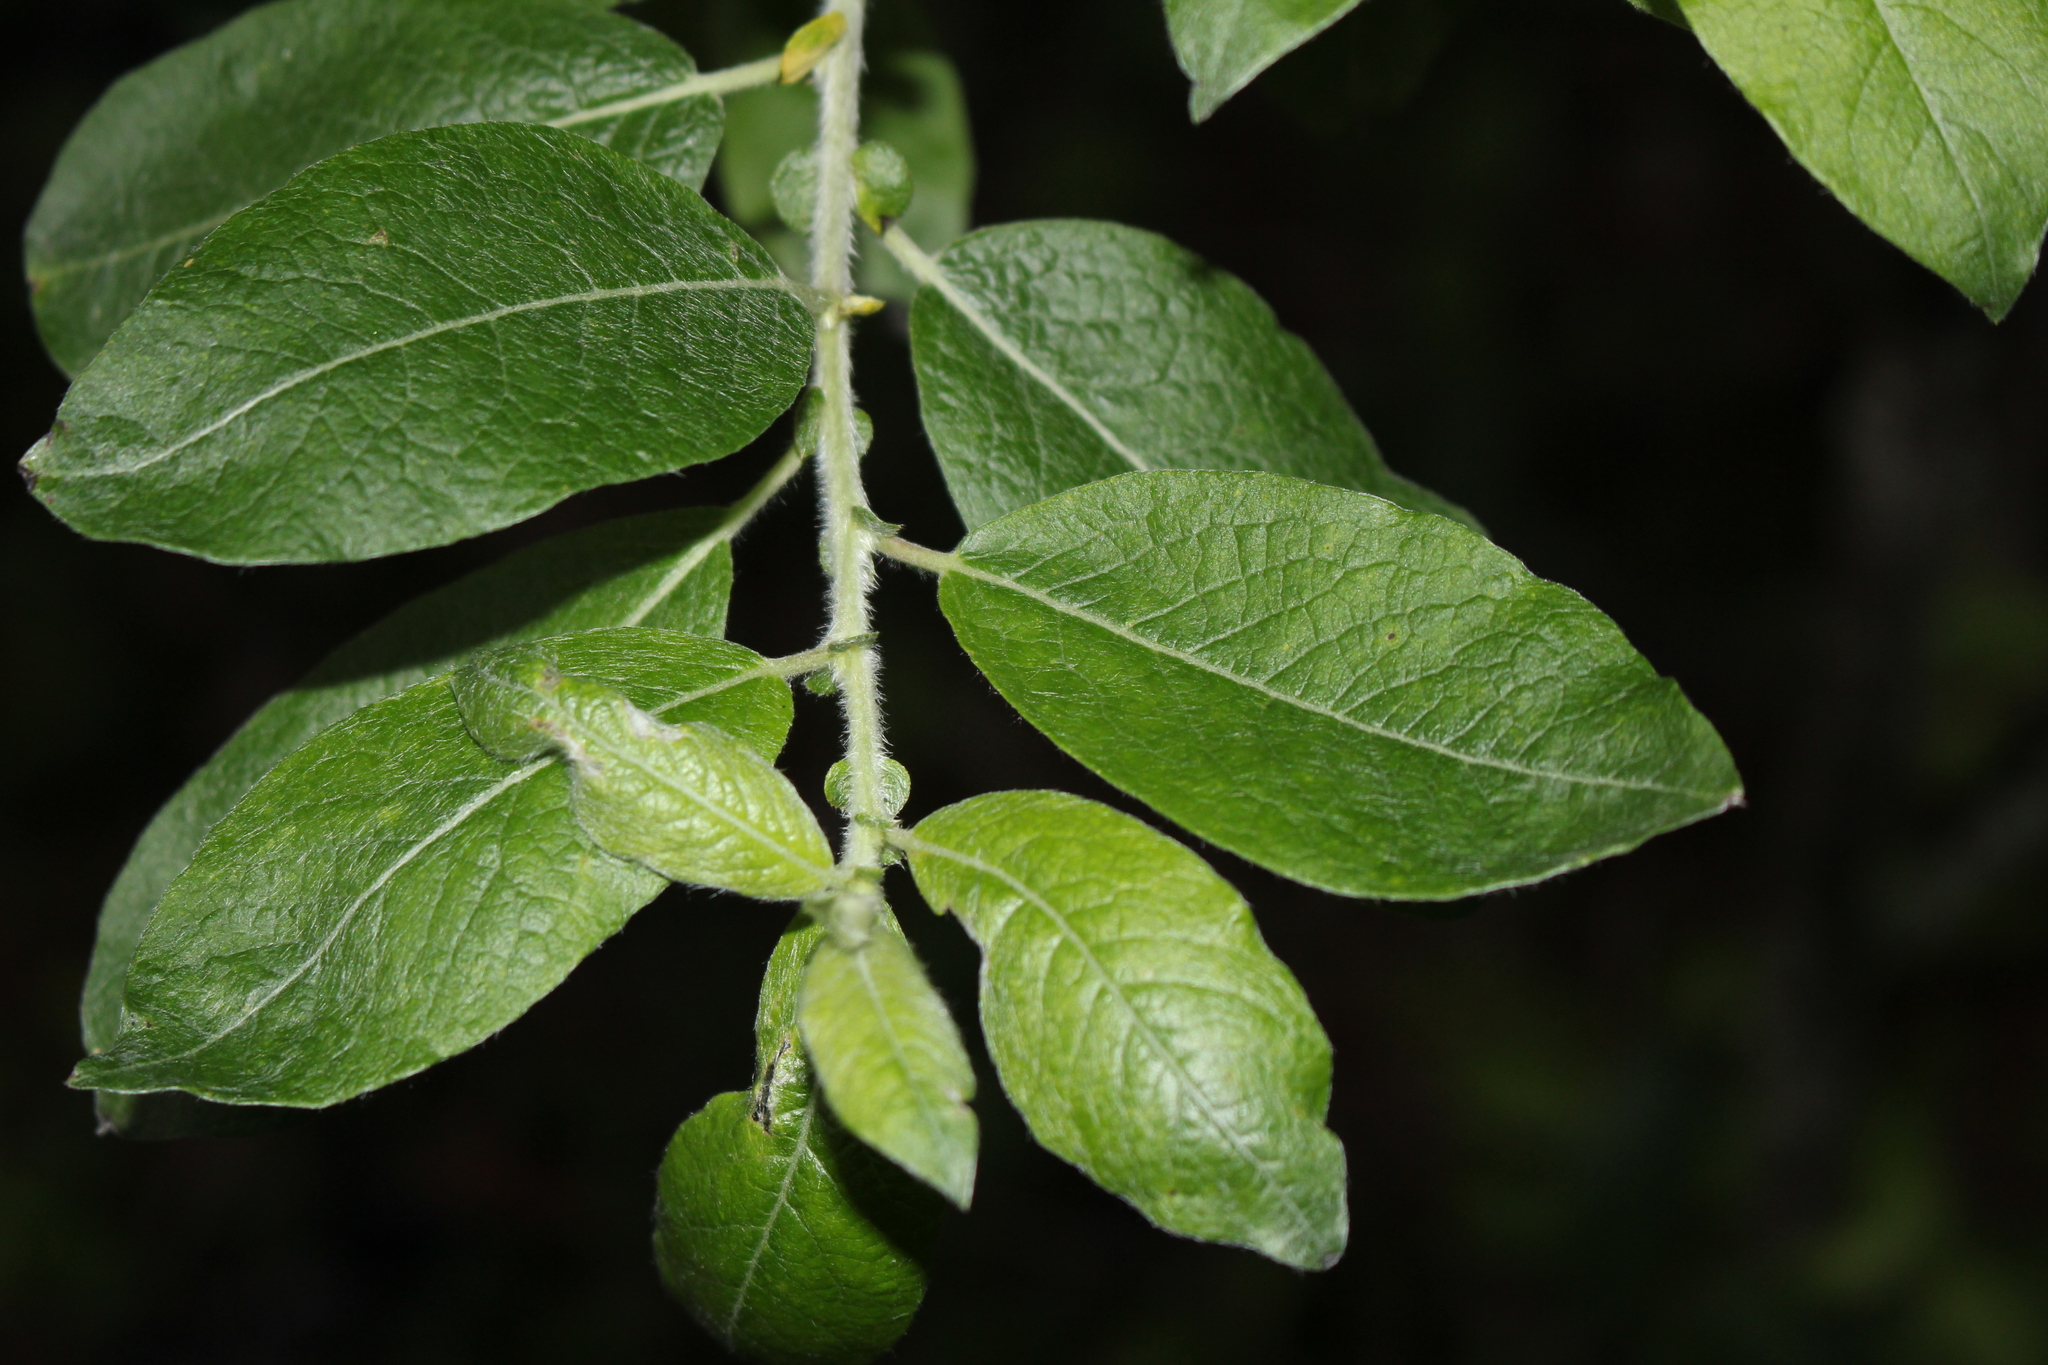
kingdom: Plantae
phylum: Tracheophyta
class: Magnoliopsida
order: Malpighiales
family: Salicaceae
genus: Salix
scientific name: Salix bebbiana
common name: Bebb's willow
